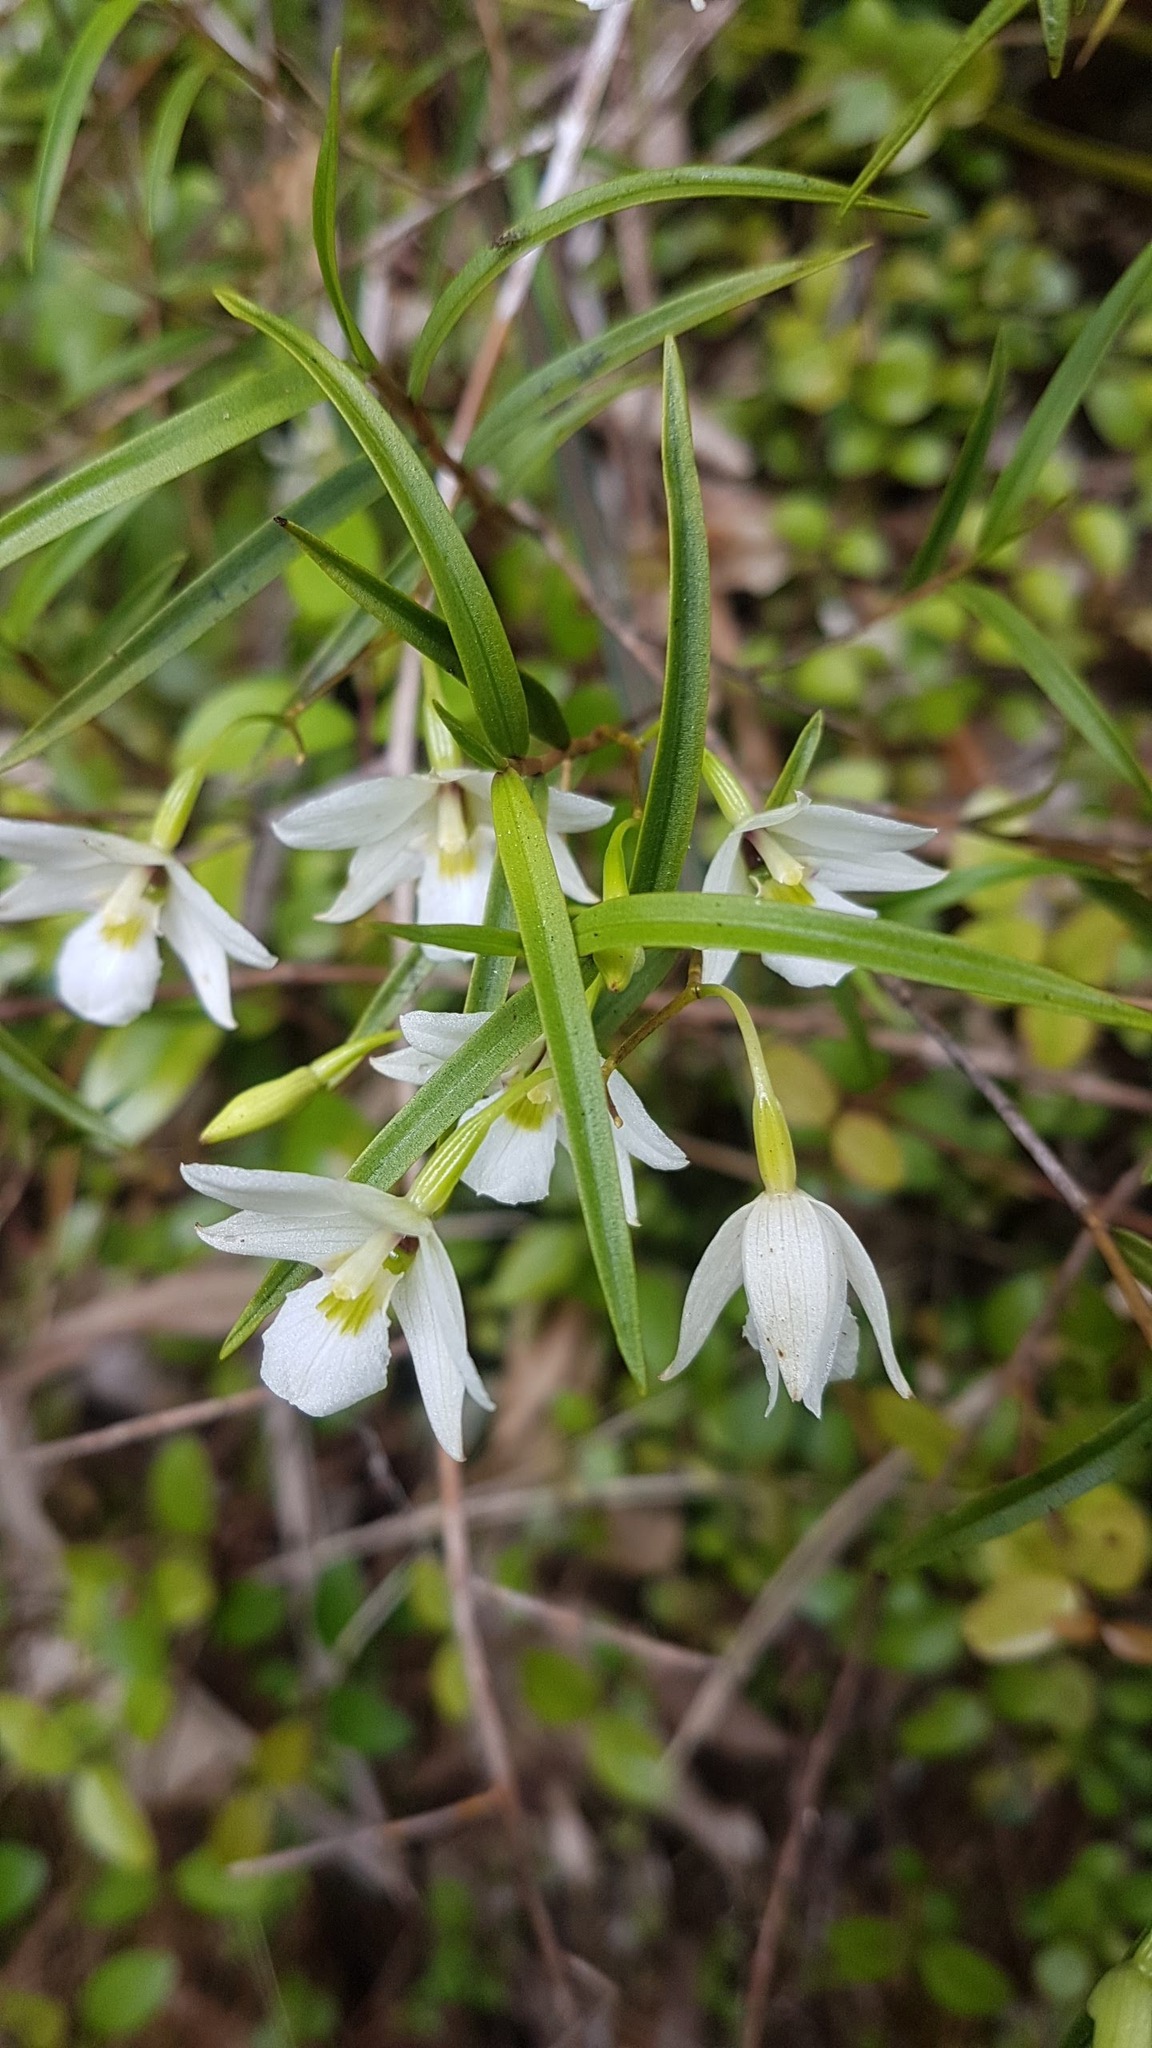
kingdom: Plantae
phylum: Tracheophyta
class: Liliopsida
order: Asparagales
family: Orchidaceae
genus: Dendrobium
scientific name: Dendrobium cunninghamii
